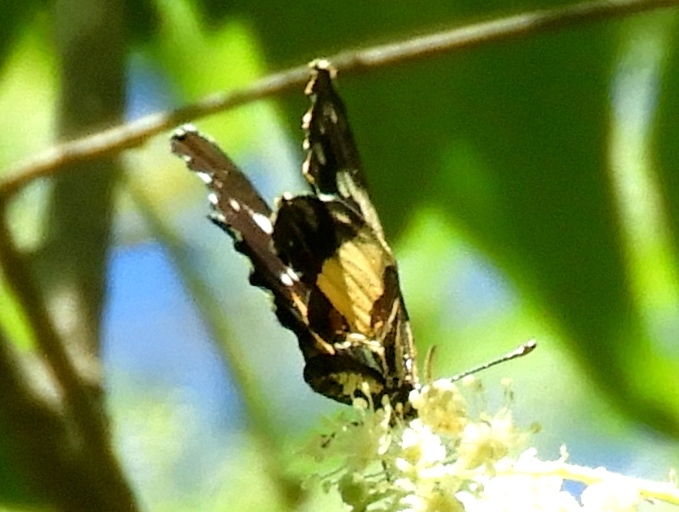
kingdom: Animalia
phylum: Arthropoda
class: Insecta
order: Lepidoptera
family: Nymphalidae
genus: Chlosyne
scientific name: Chlosyne lacinia
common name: Bordered patch
